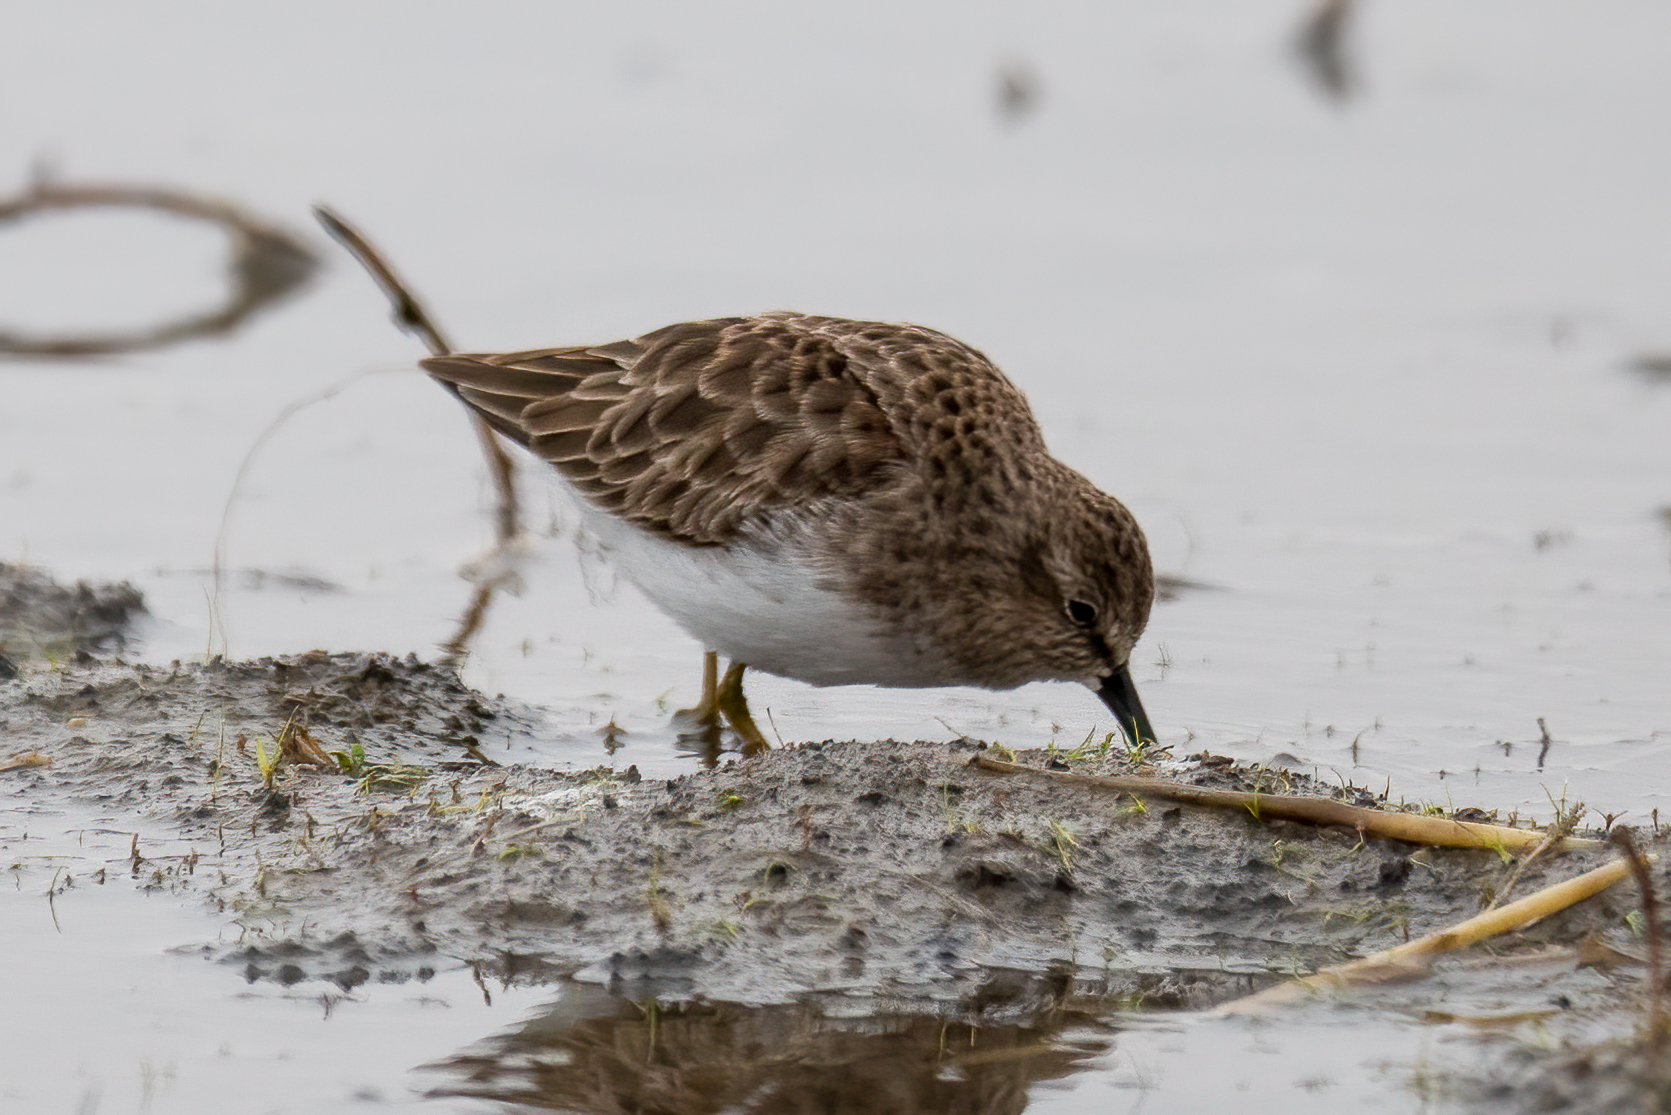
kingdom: Animalia
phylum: Chordata
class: Aves
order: Charadriiformes
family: Scolopacidae
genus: Calidris
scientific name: Calidris minutilla
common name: Least sandpiper
